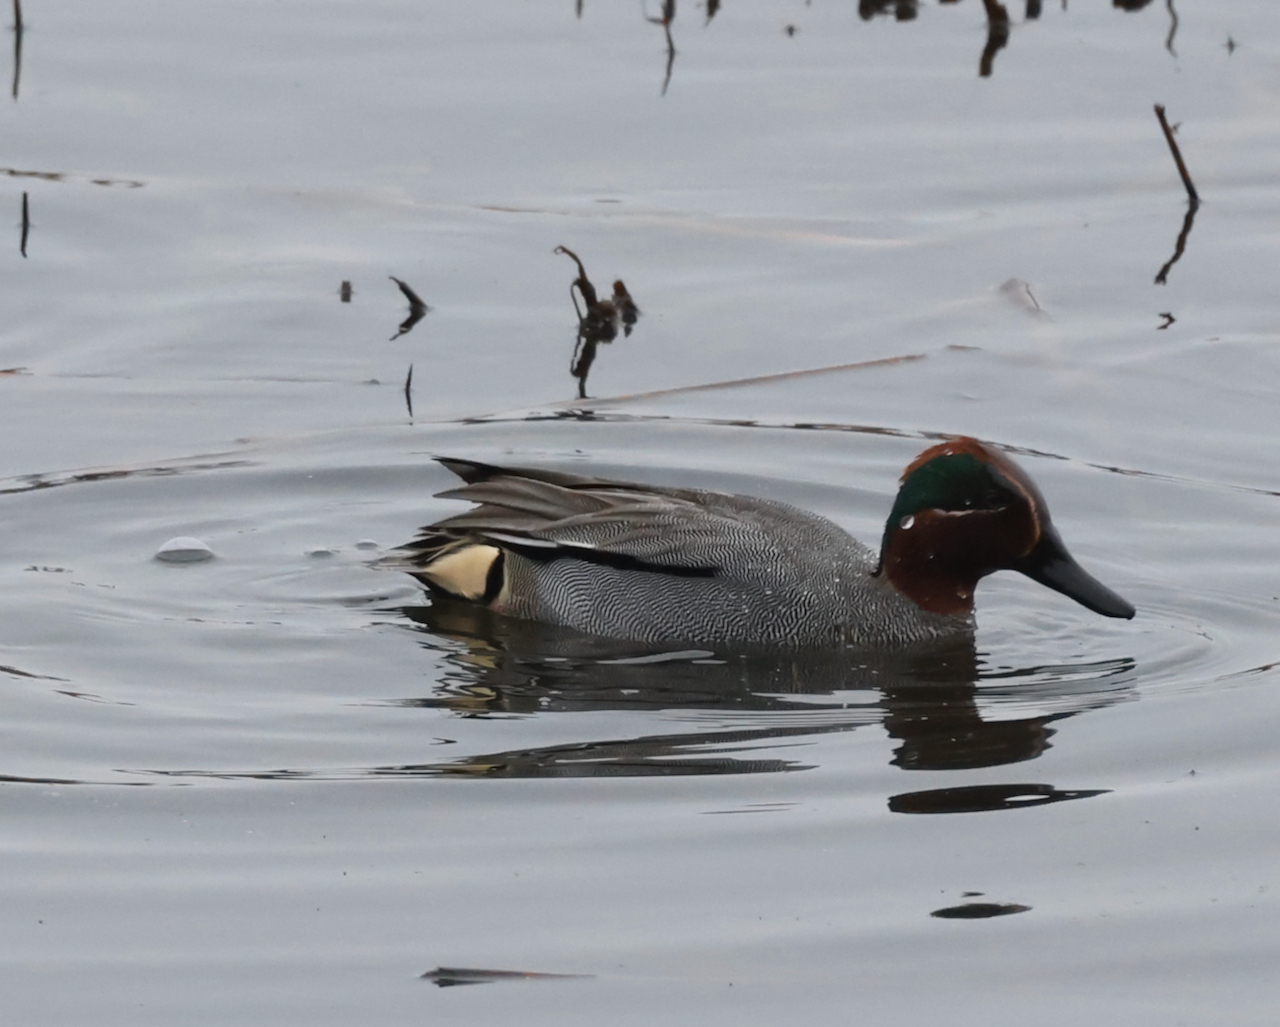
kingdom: Animalia
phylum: Chordata
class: Aves
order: Anseriformes
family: Anatidae
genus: Anas
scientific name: Anas crecca
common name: Eurasian teal
